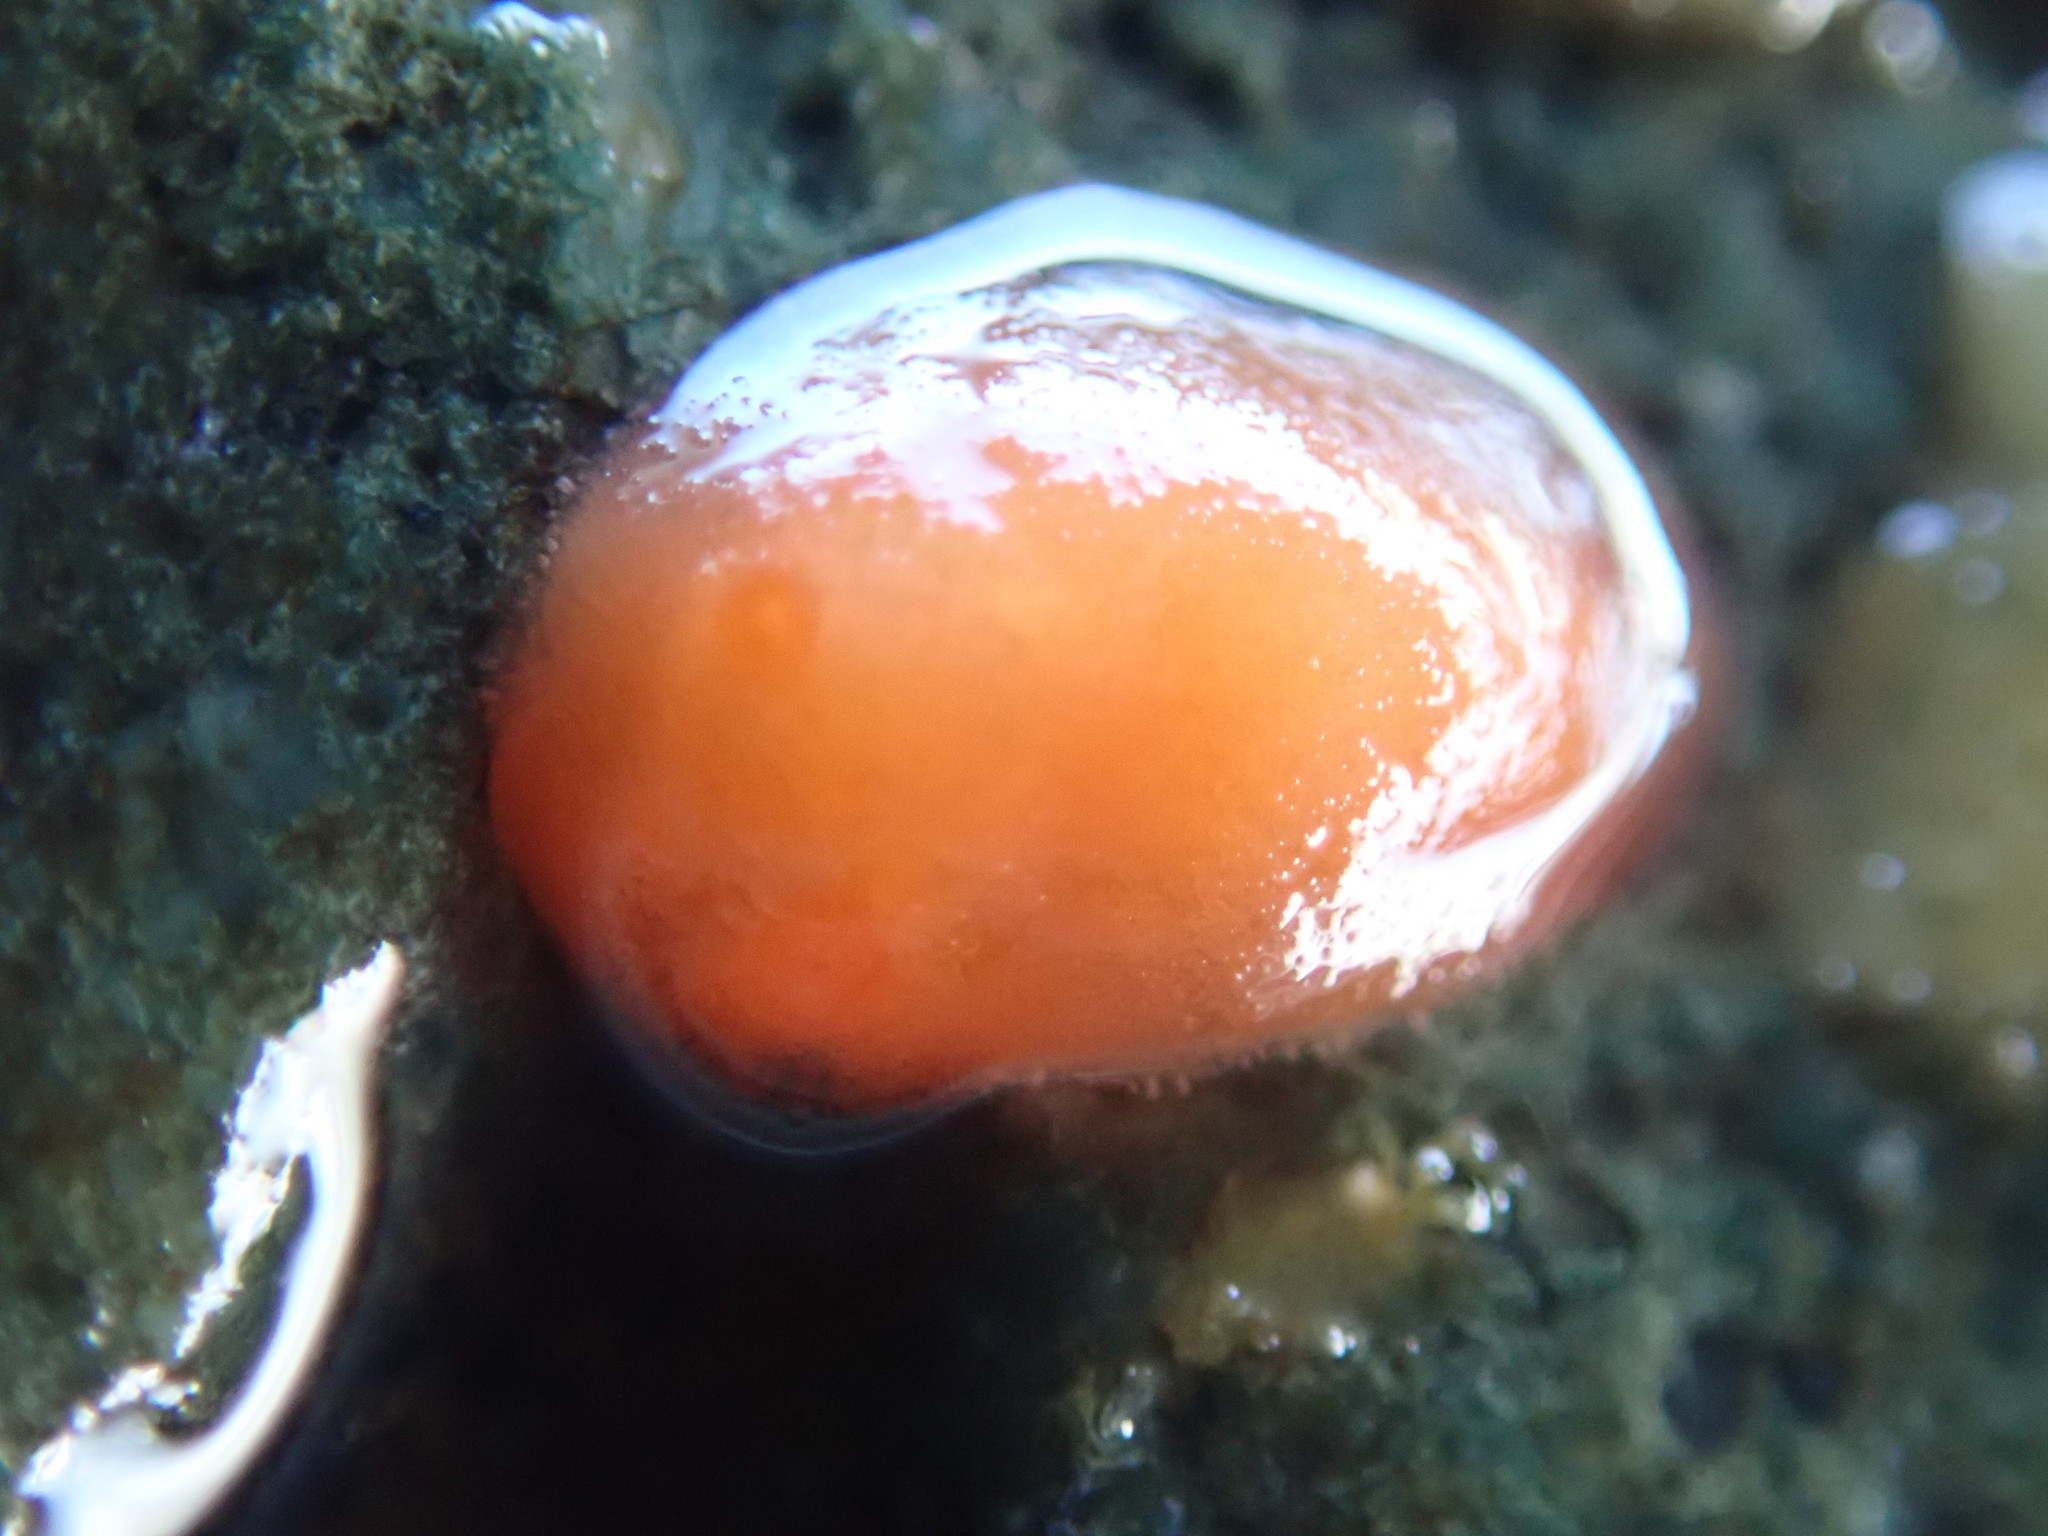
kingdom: Animalia
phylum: Mollusca
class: Gastropoda
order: Nudibranchia
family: Discodorididae
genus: Rostanga
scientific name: Rostanga pulchra
